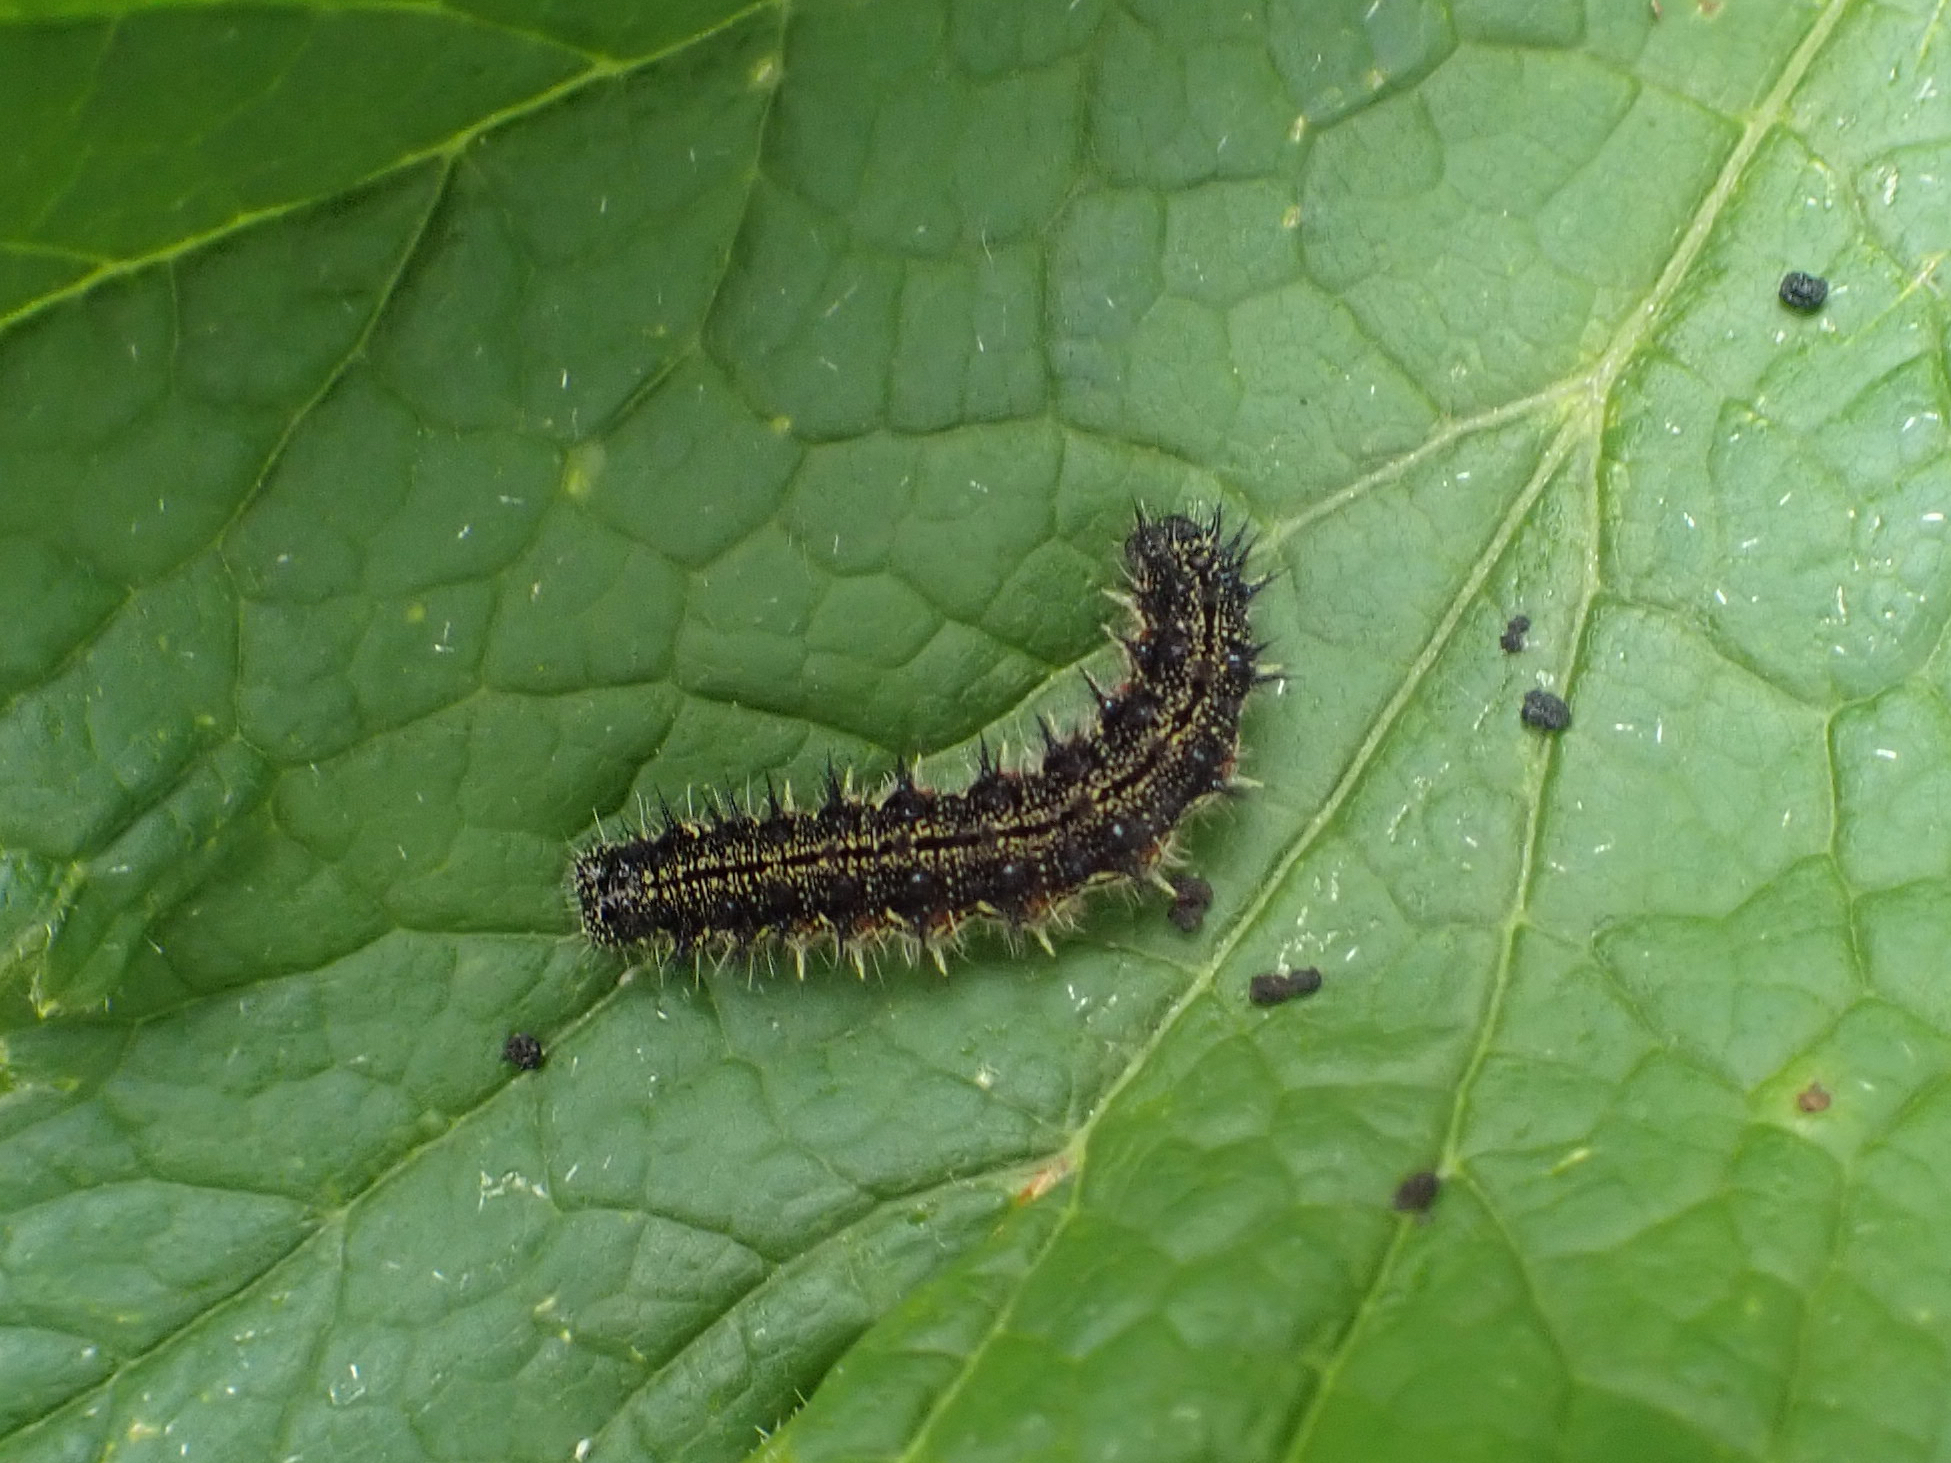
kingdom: Animalia
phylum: Arthropoda
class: Insecta
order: Lepidoptera
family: Nymphalidae
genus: Aglais
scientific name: Aglais milberti
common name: Milbert's tortoiseshell
